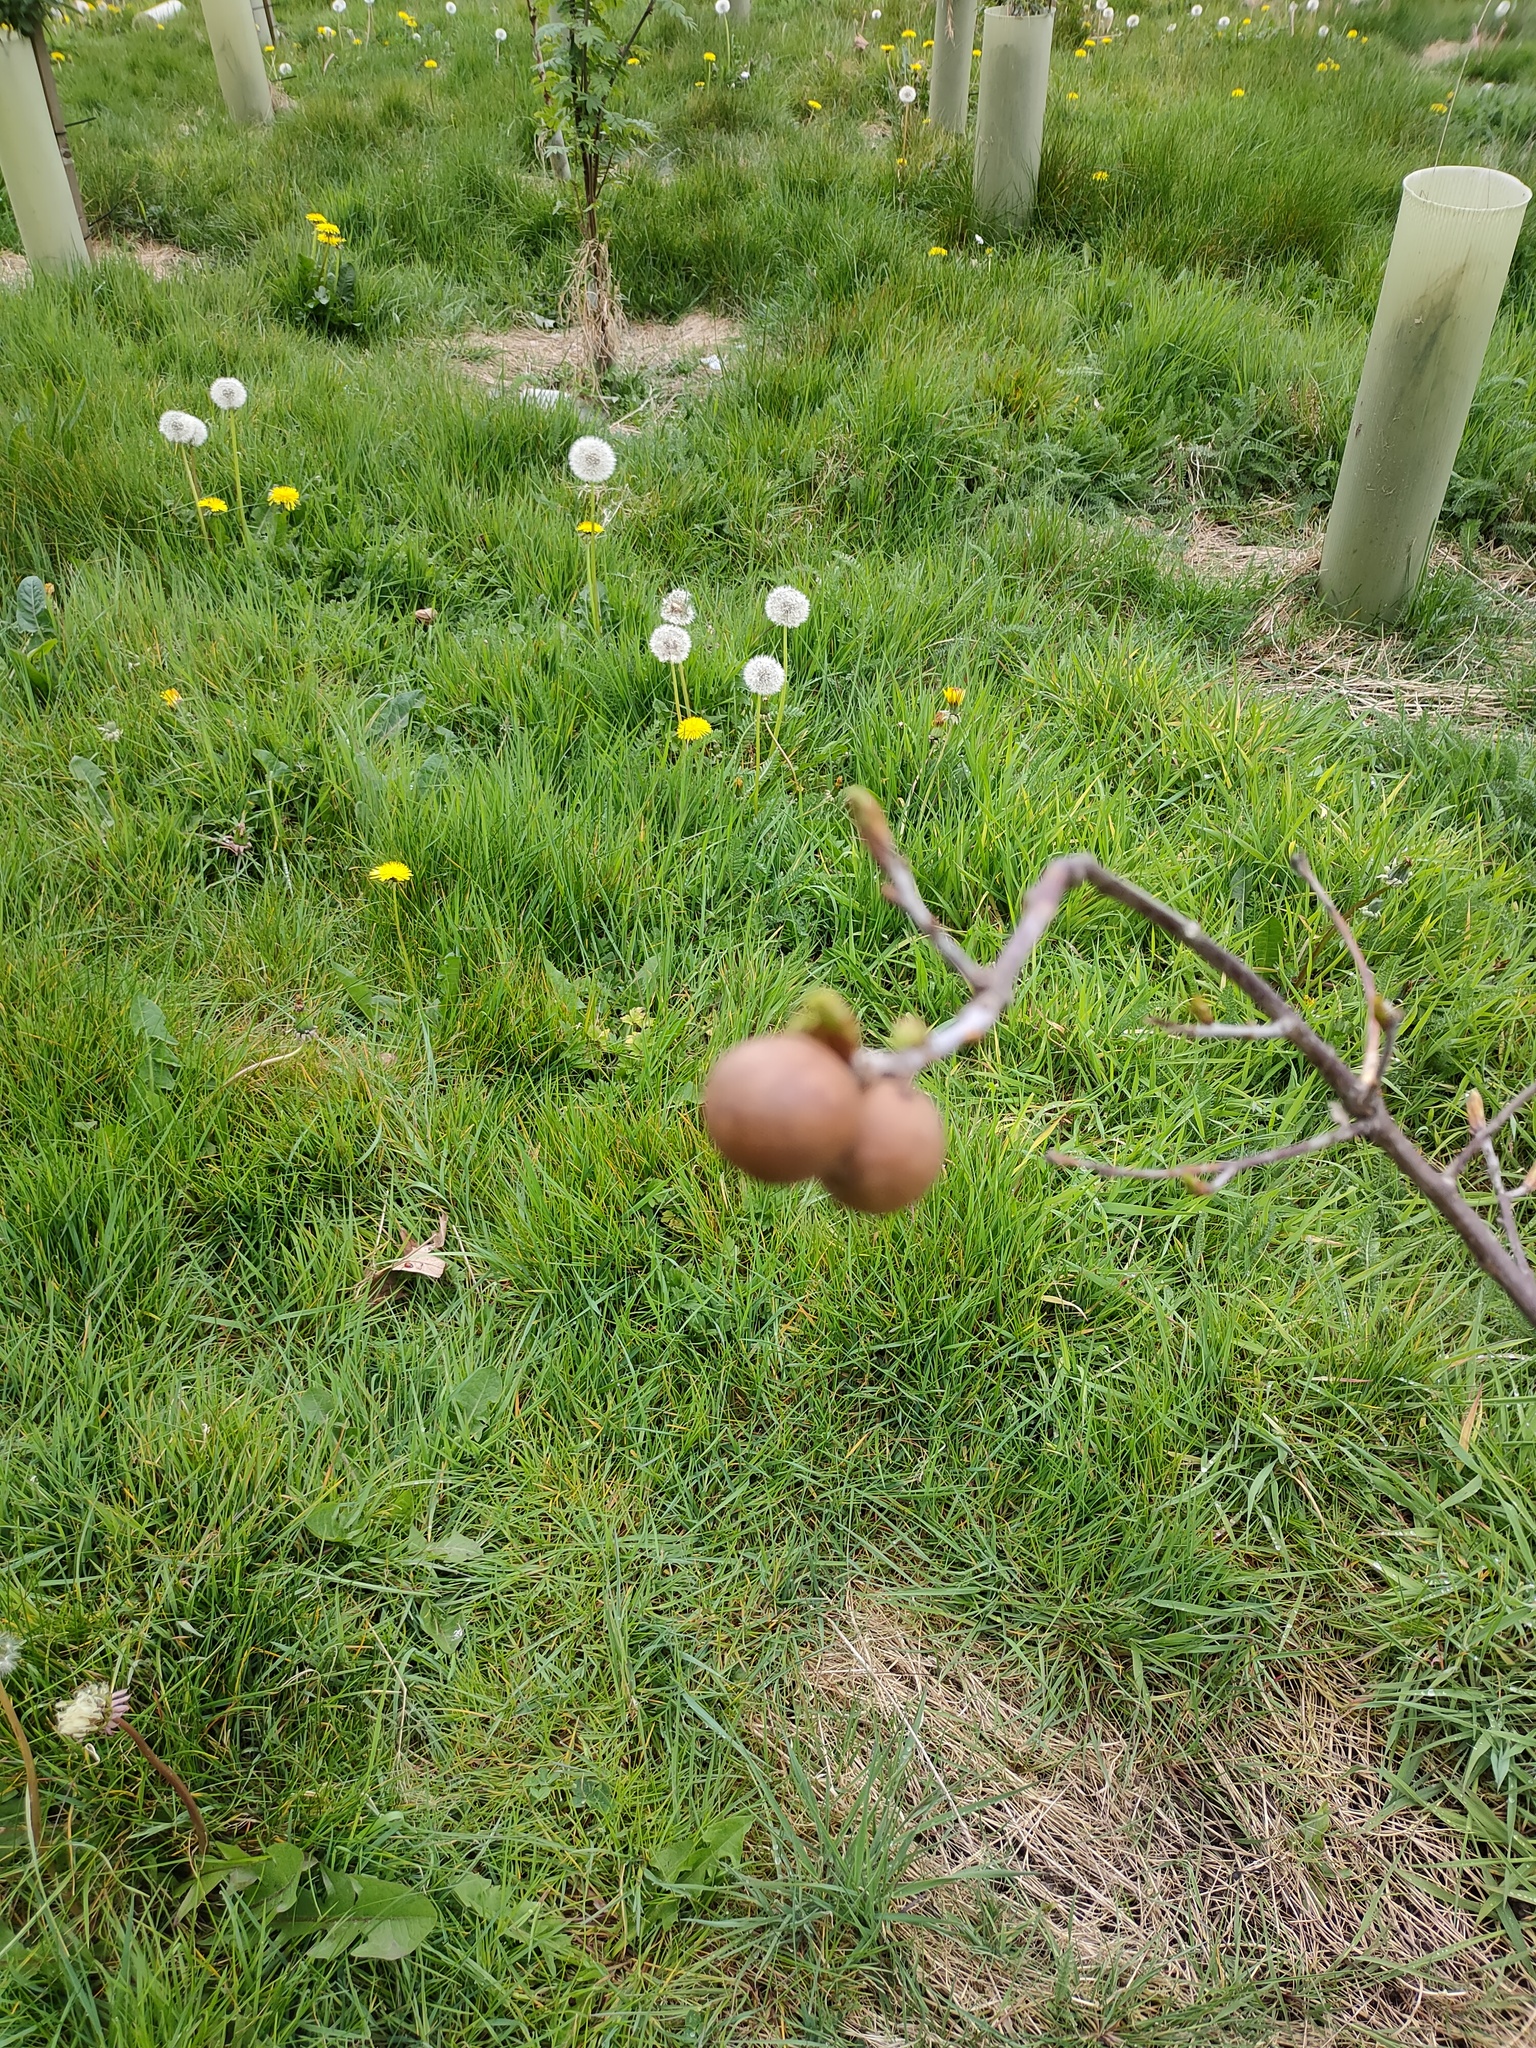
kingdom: Animalia
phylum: Arthropoda
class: Insecta
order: Hymenoptera
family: Cynipidae
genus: Andricus
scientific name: Andricus kollari
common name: Marble gall
